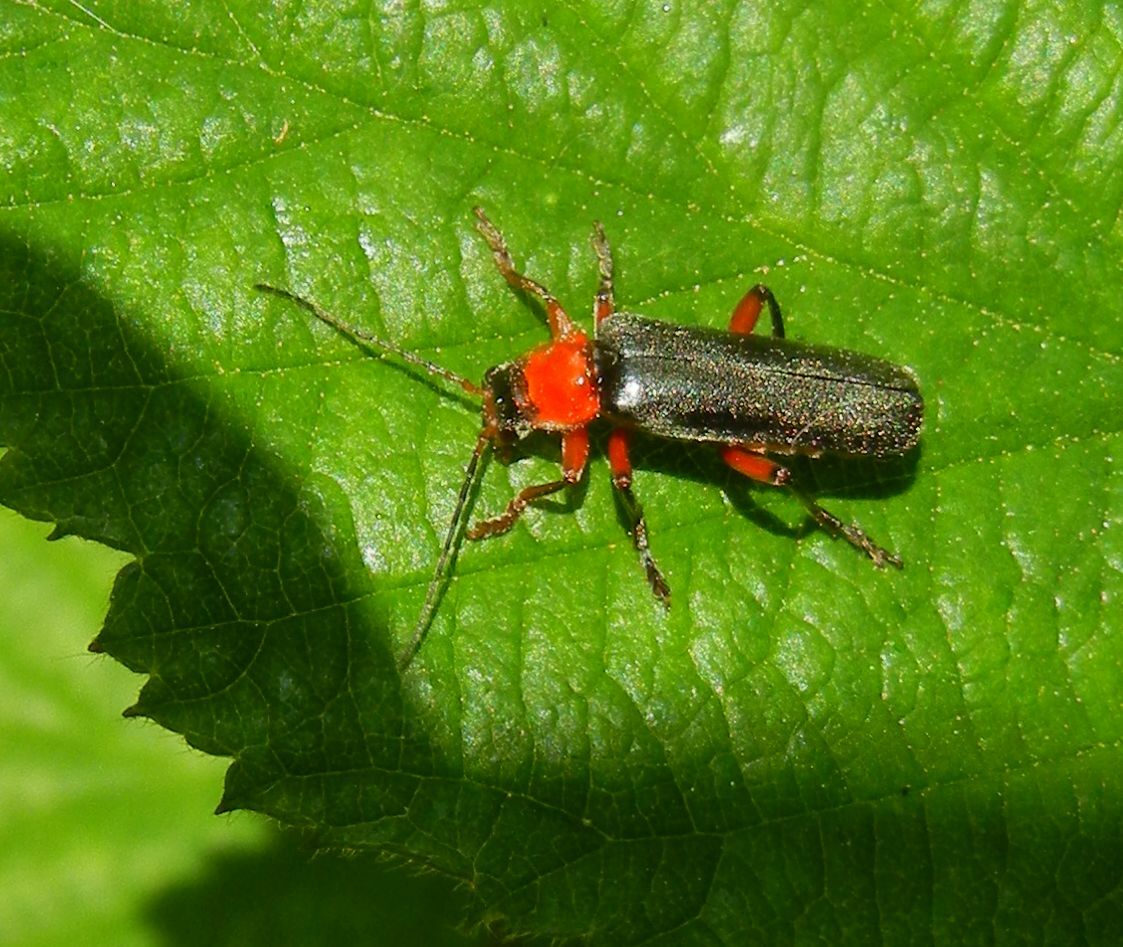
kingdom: Animalia
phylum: Arthropoda
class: Insecta
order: Coleoptera
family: Cantharidae
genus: Cantharis
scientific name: Cantharis pellucida
